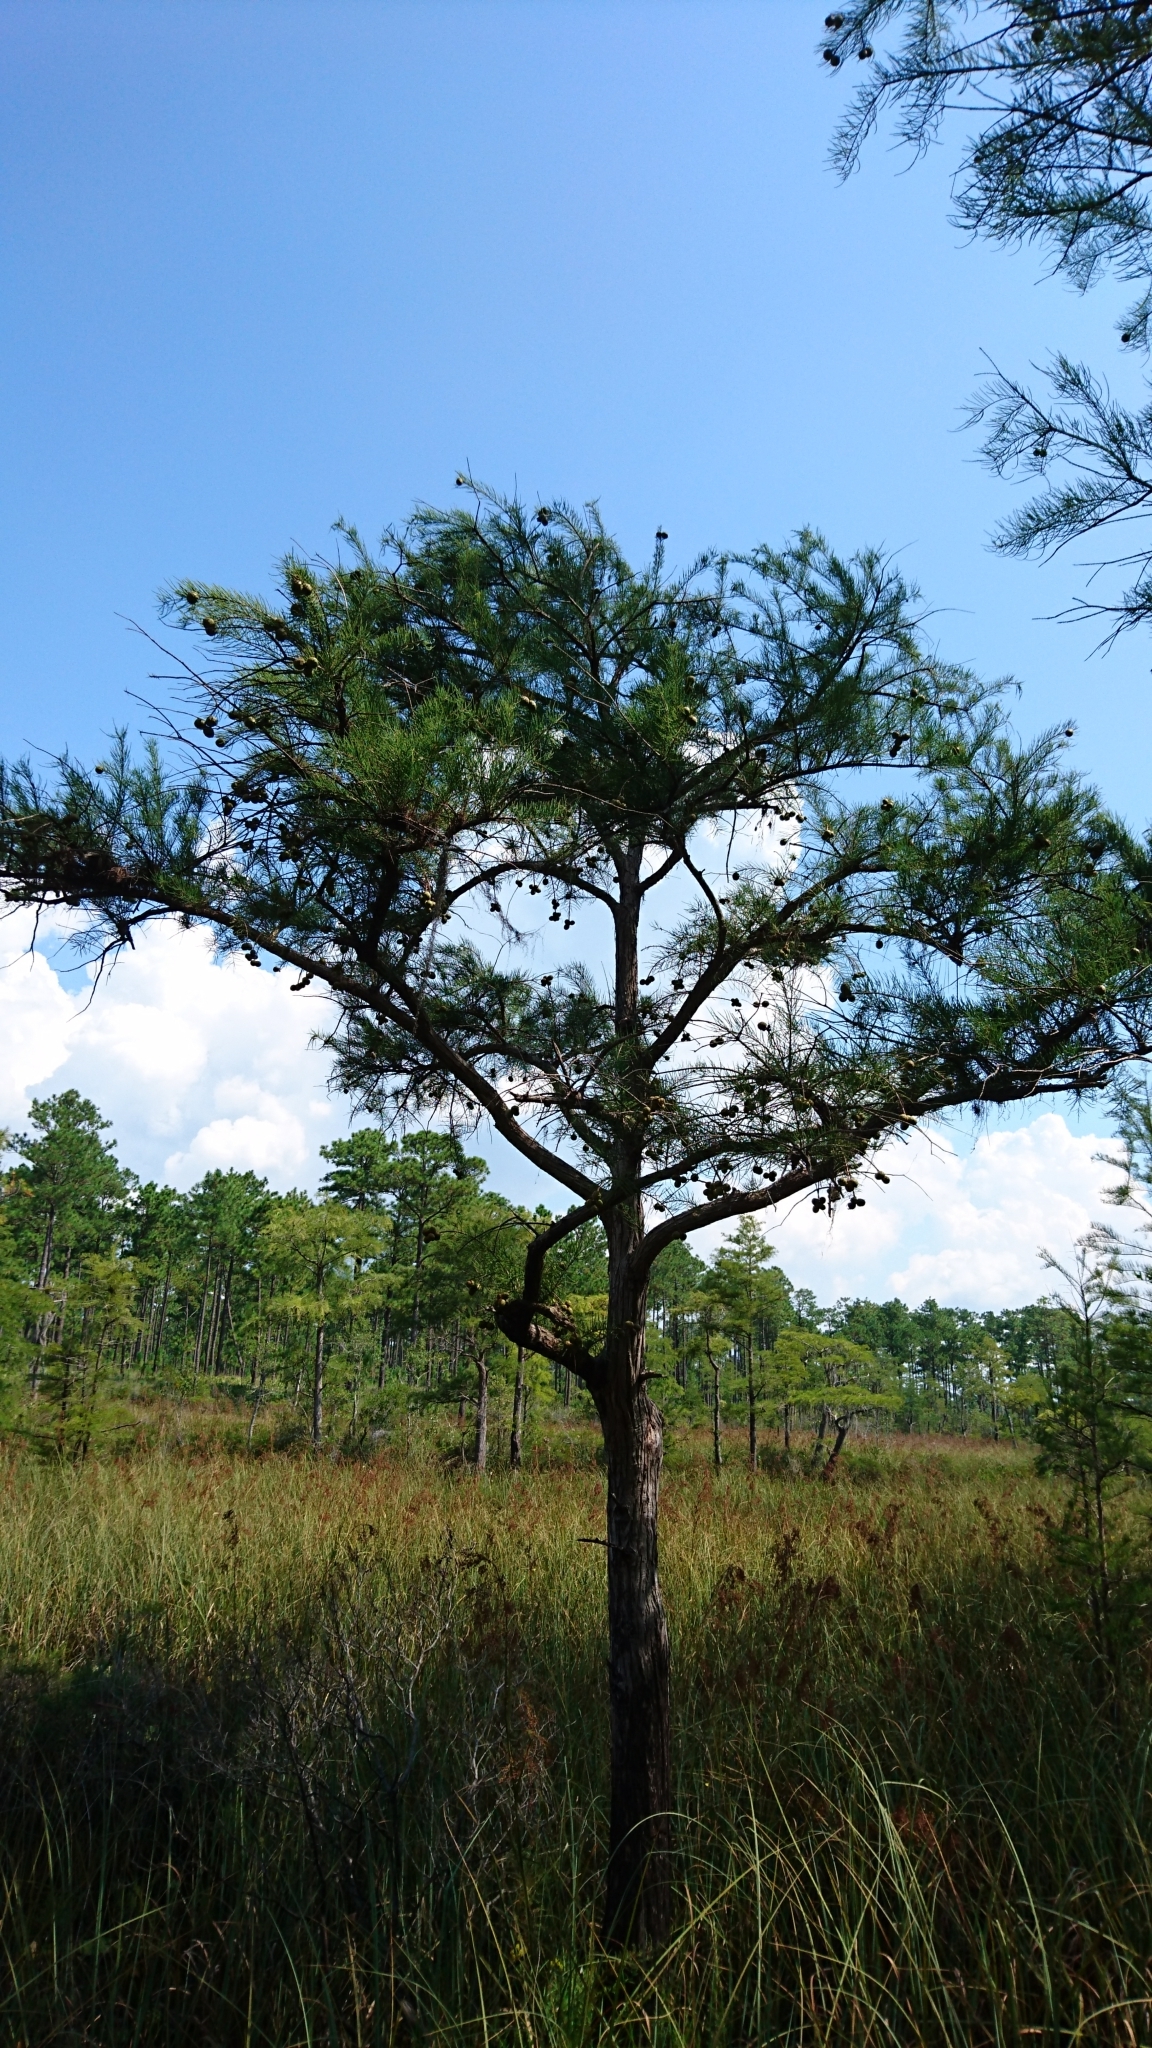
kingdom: Plantae
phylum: Tracheophyta
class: Pinopsida
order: Pinales
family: Cupressaceae
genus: Taxodium
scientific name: Taxodium distichum
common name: Bald cypress
